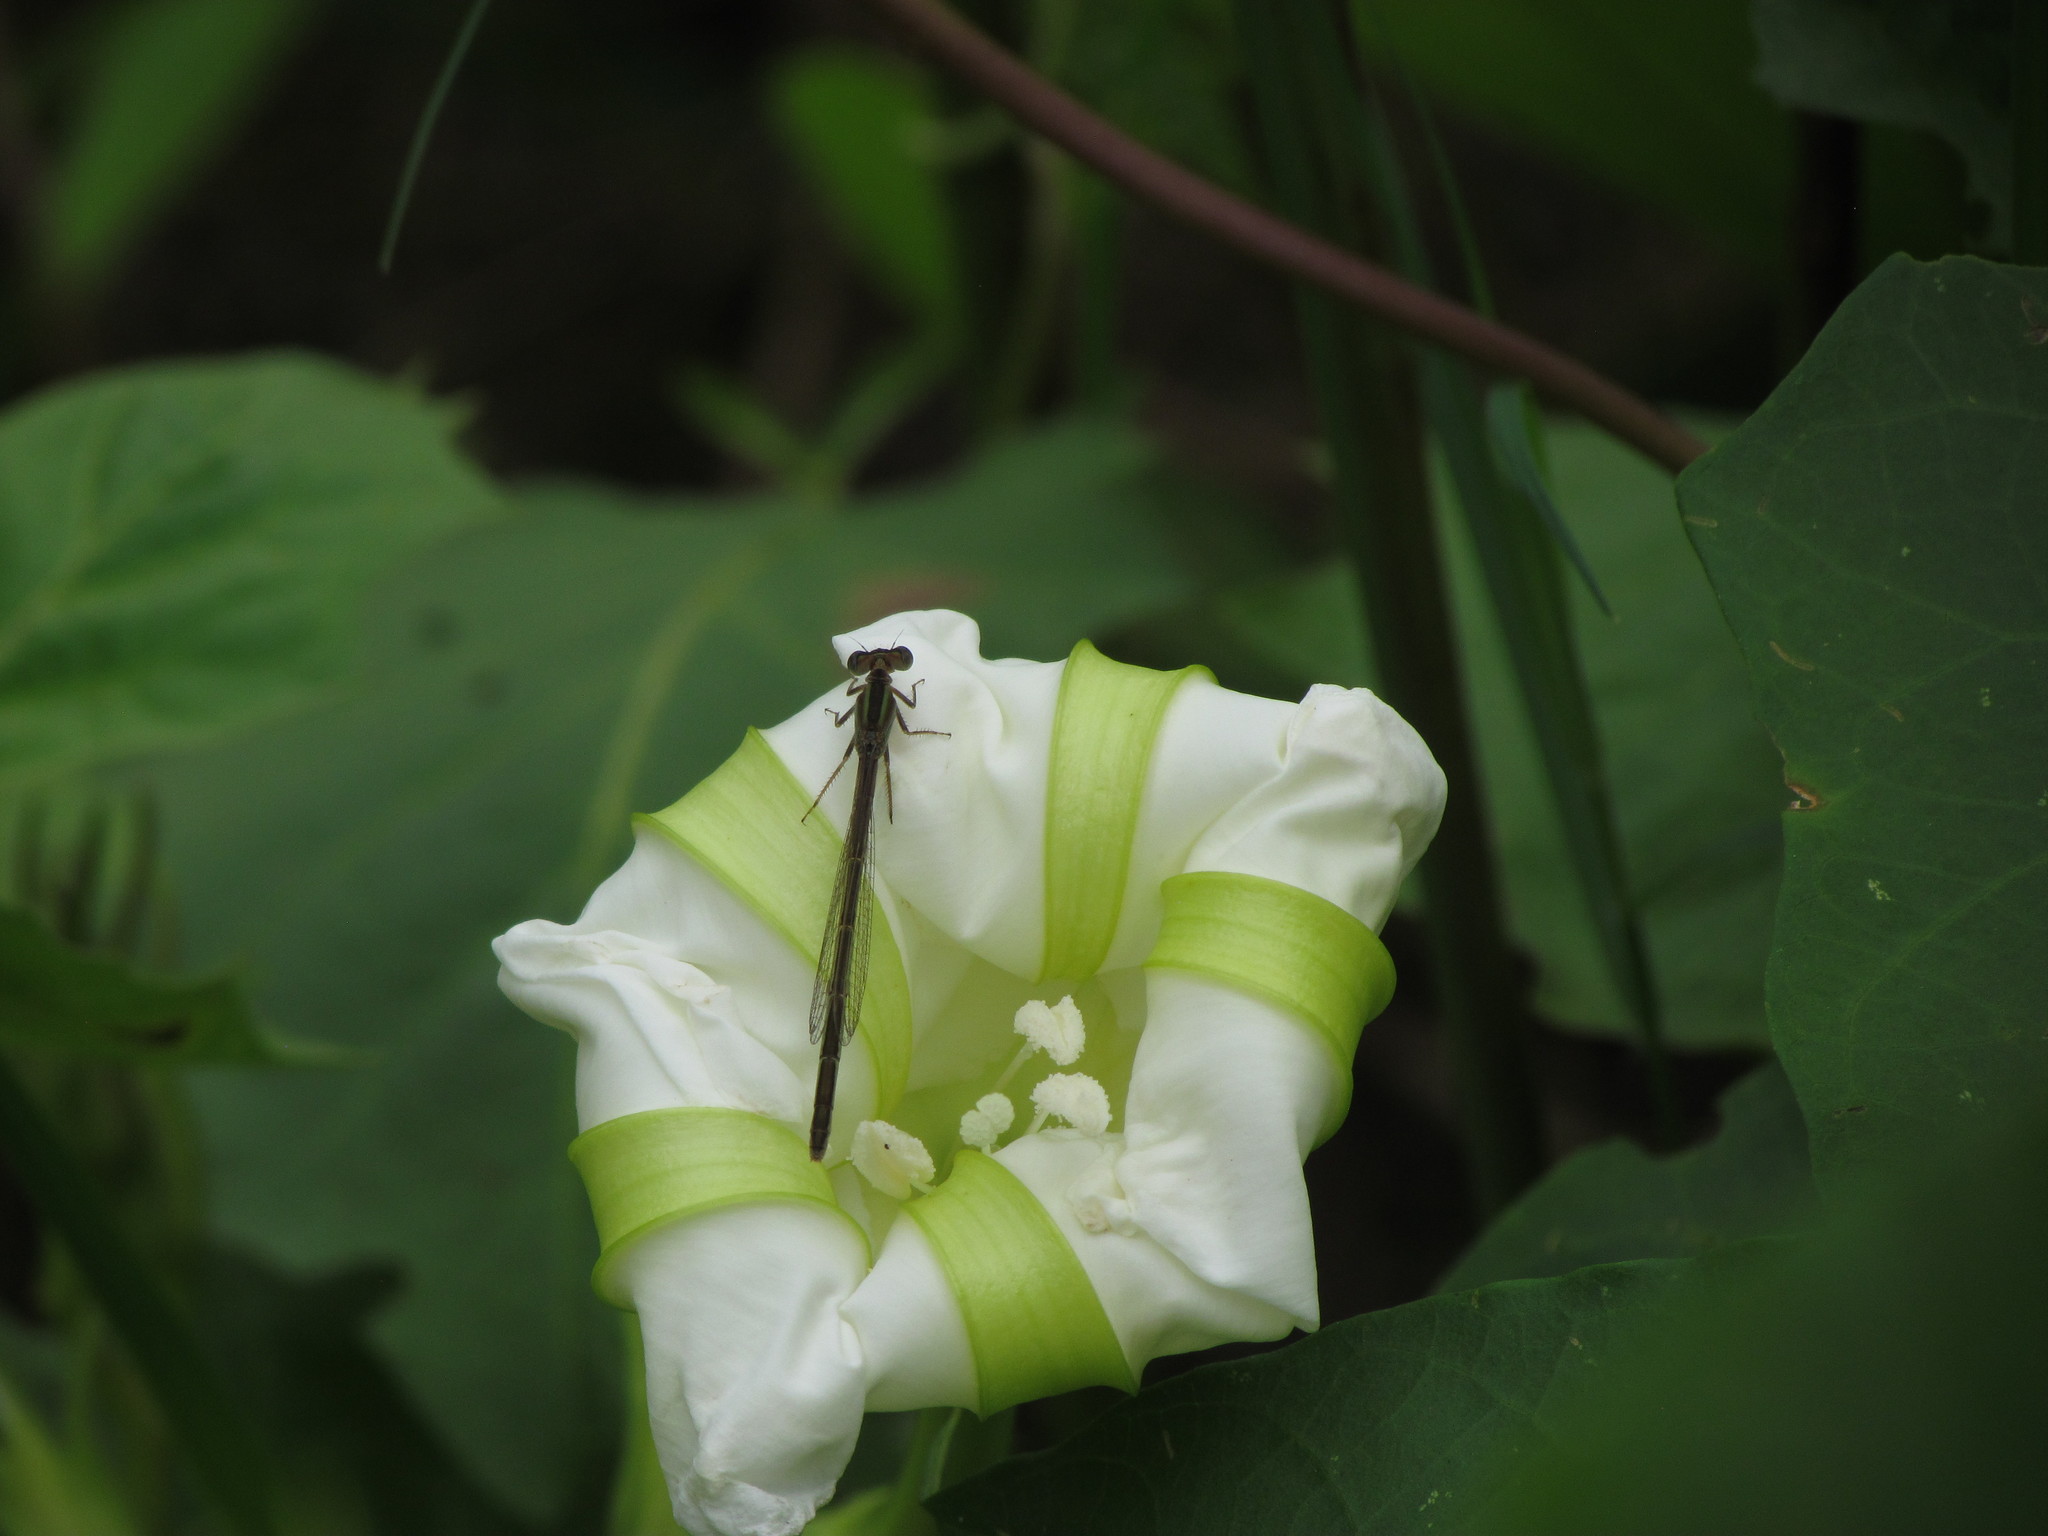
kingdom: Animalia
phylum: Arthropoda
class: Insecta
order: Odonata
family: Coenagrionidae
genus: Ischnura
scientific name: Ischnura fluviatilis
